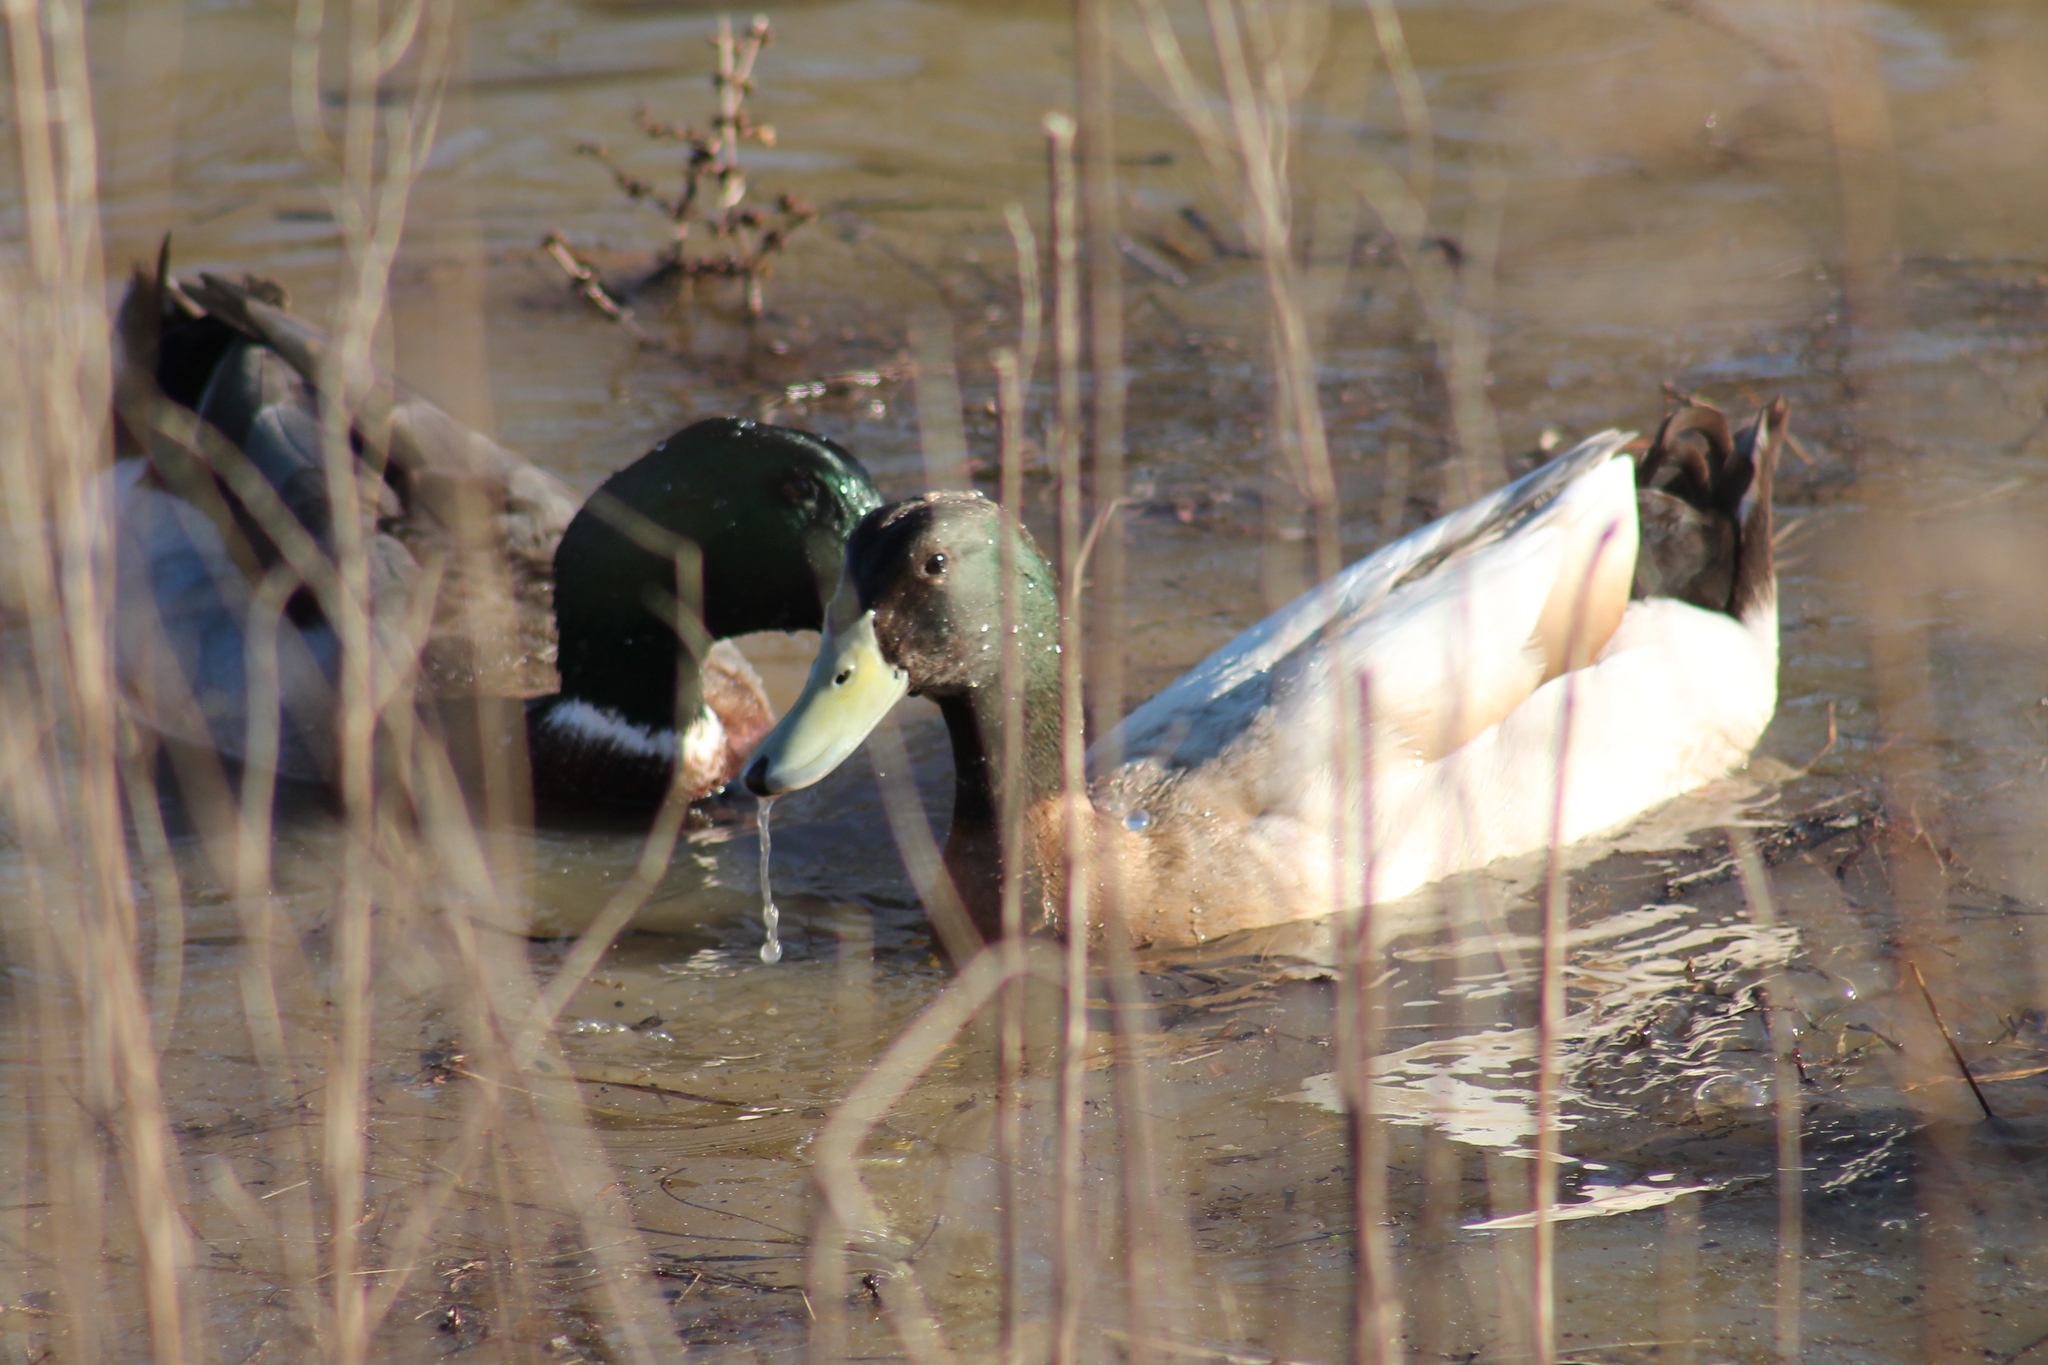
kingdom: Animalia
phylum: Chordata
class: Aves
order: Anseriformes
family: Anatidae
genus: Anas
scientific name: Anas platyrhynchos
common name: Mallard
